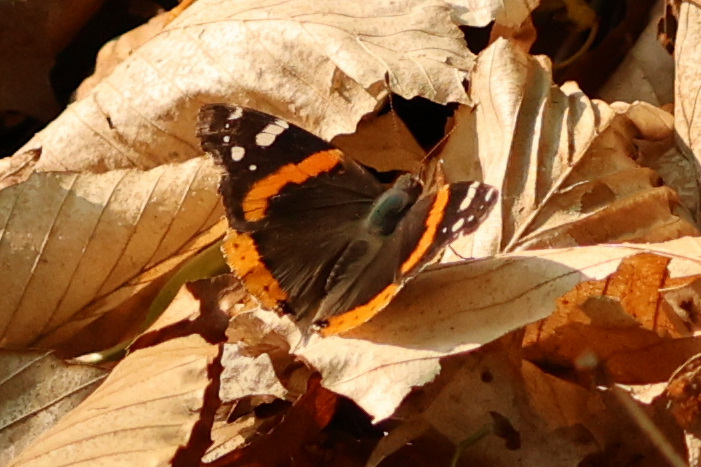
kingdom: Animalia
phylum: Arthropoda
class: Insecta
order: Lepidoptera
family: Nymphalidae
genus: Vanessa
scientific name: Vanessa atalanta
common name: Red admiral
